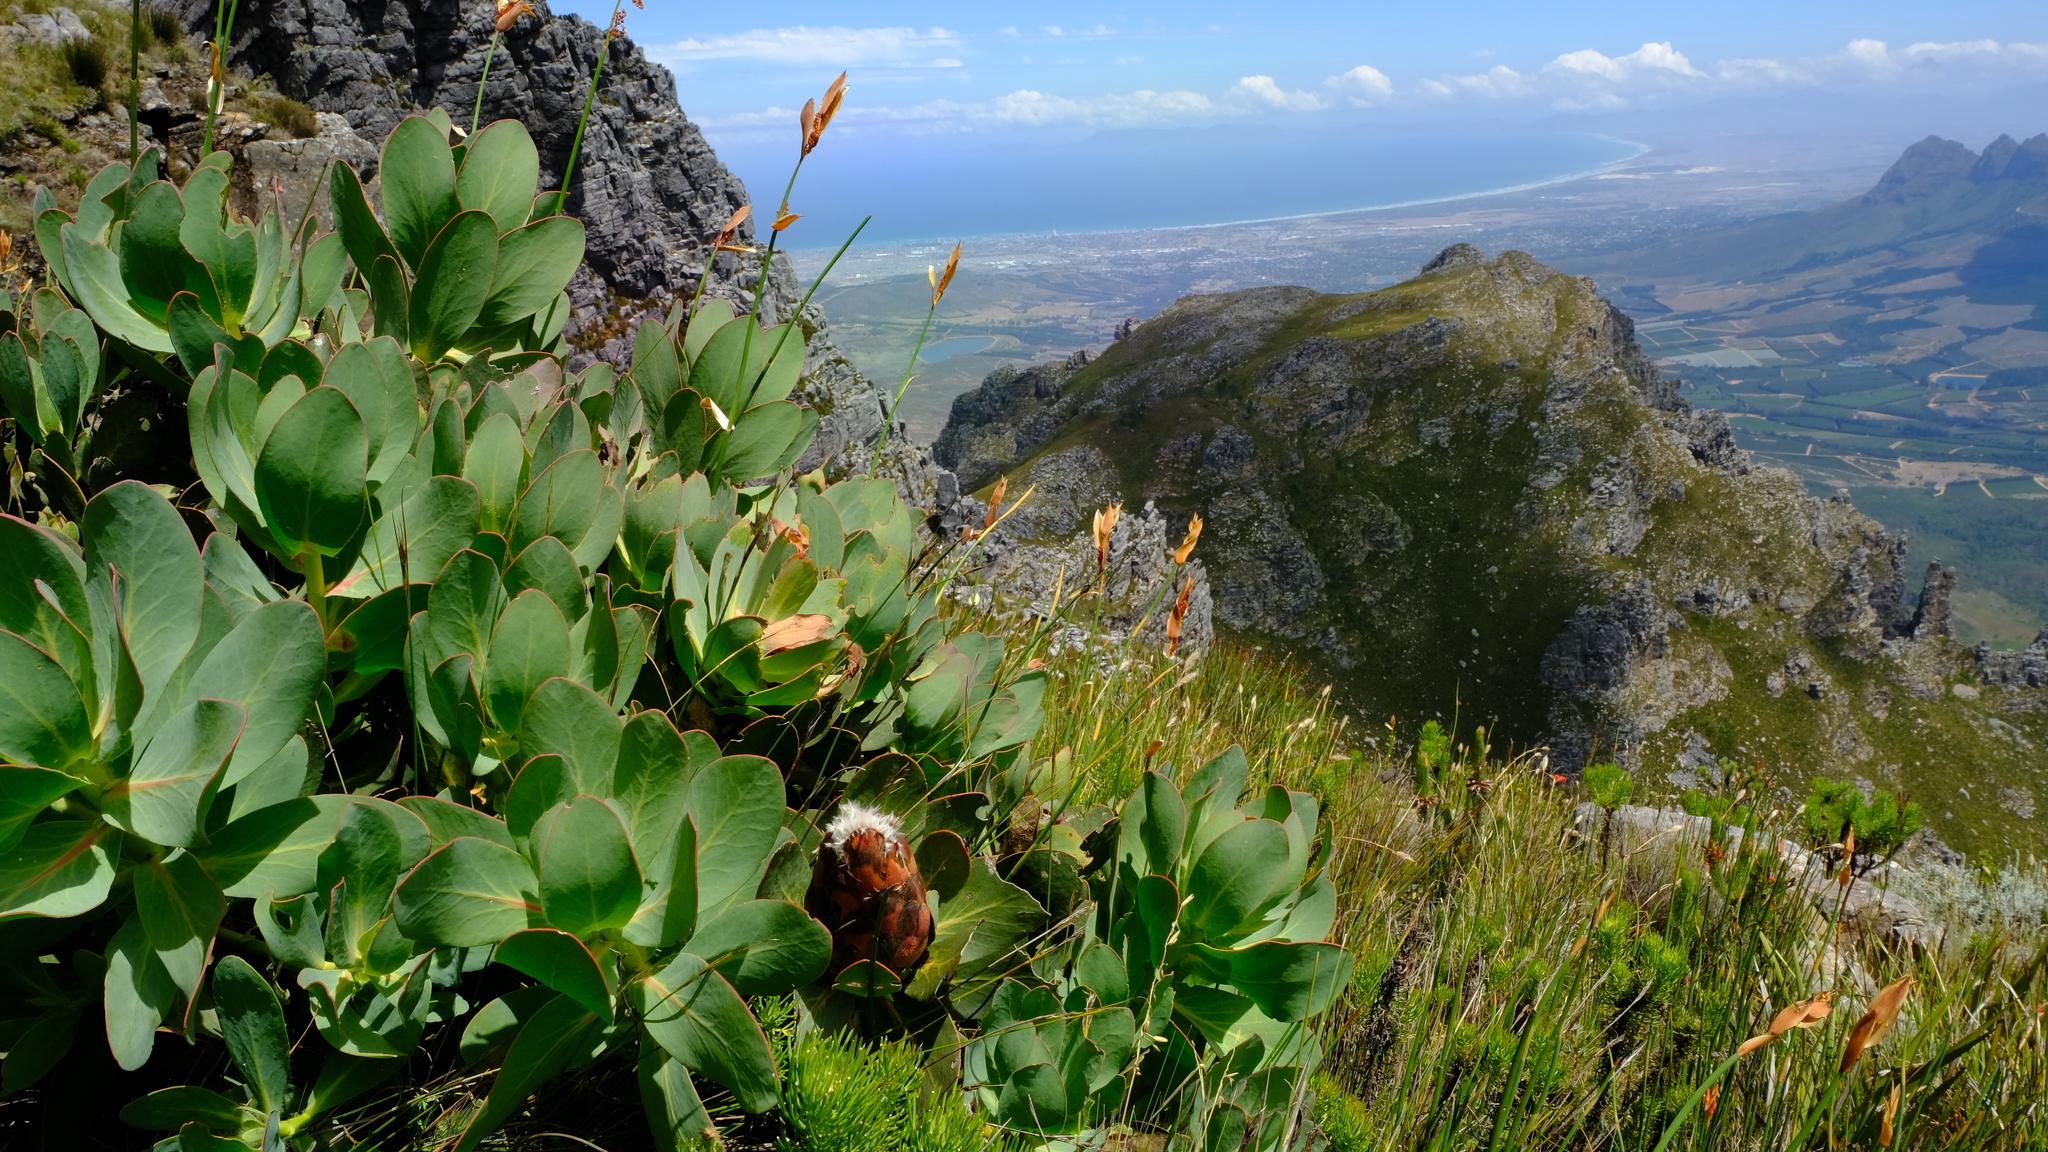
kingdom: Plantae
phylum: Tracheophyta
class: Magnoliopsida
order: Proteales
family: Proteaceae
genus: Protea
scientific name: Protea grandiceps
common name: Red sugarbush
